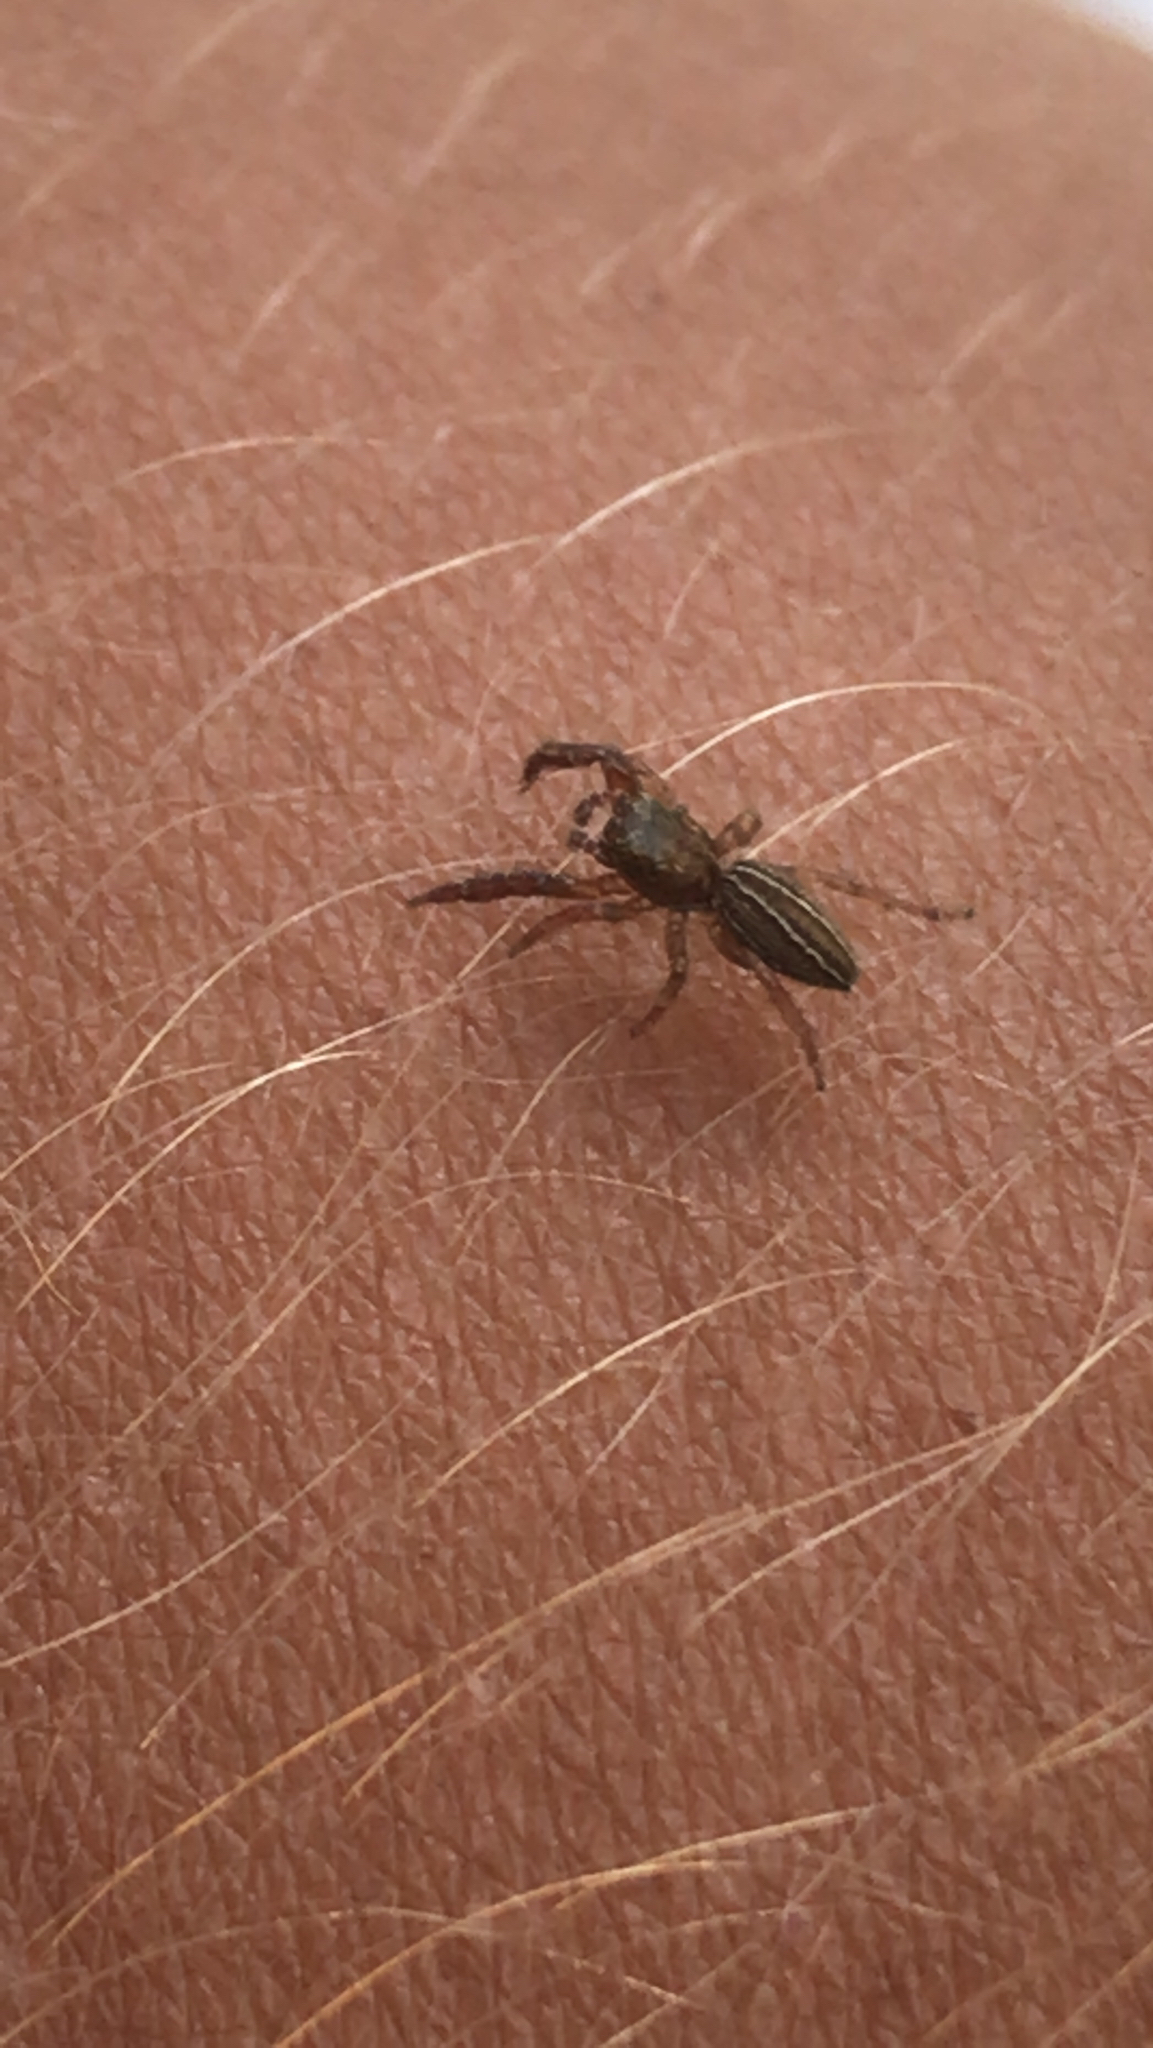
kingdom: Animalia
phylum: Arthropoda
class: Arachnida
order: Araneae
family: Salticidae
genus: Marpissa
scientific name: Marpissa lineata
